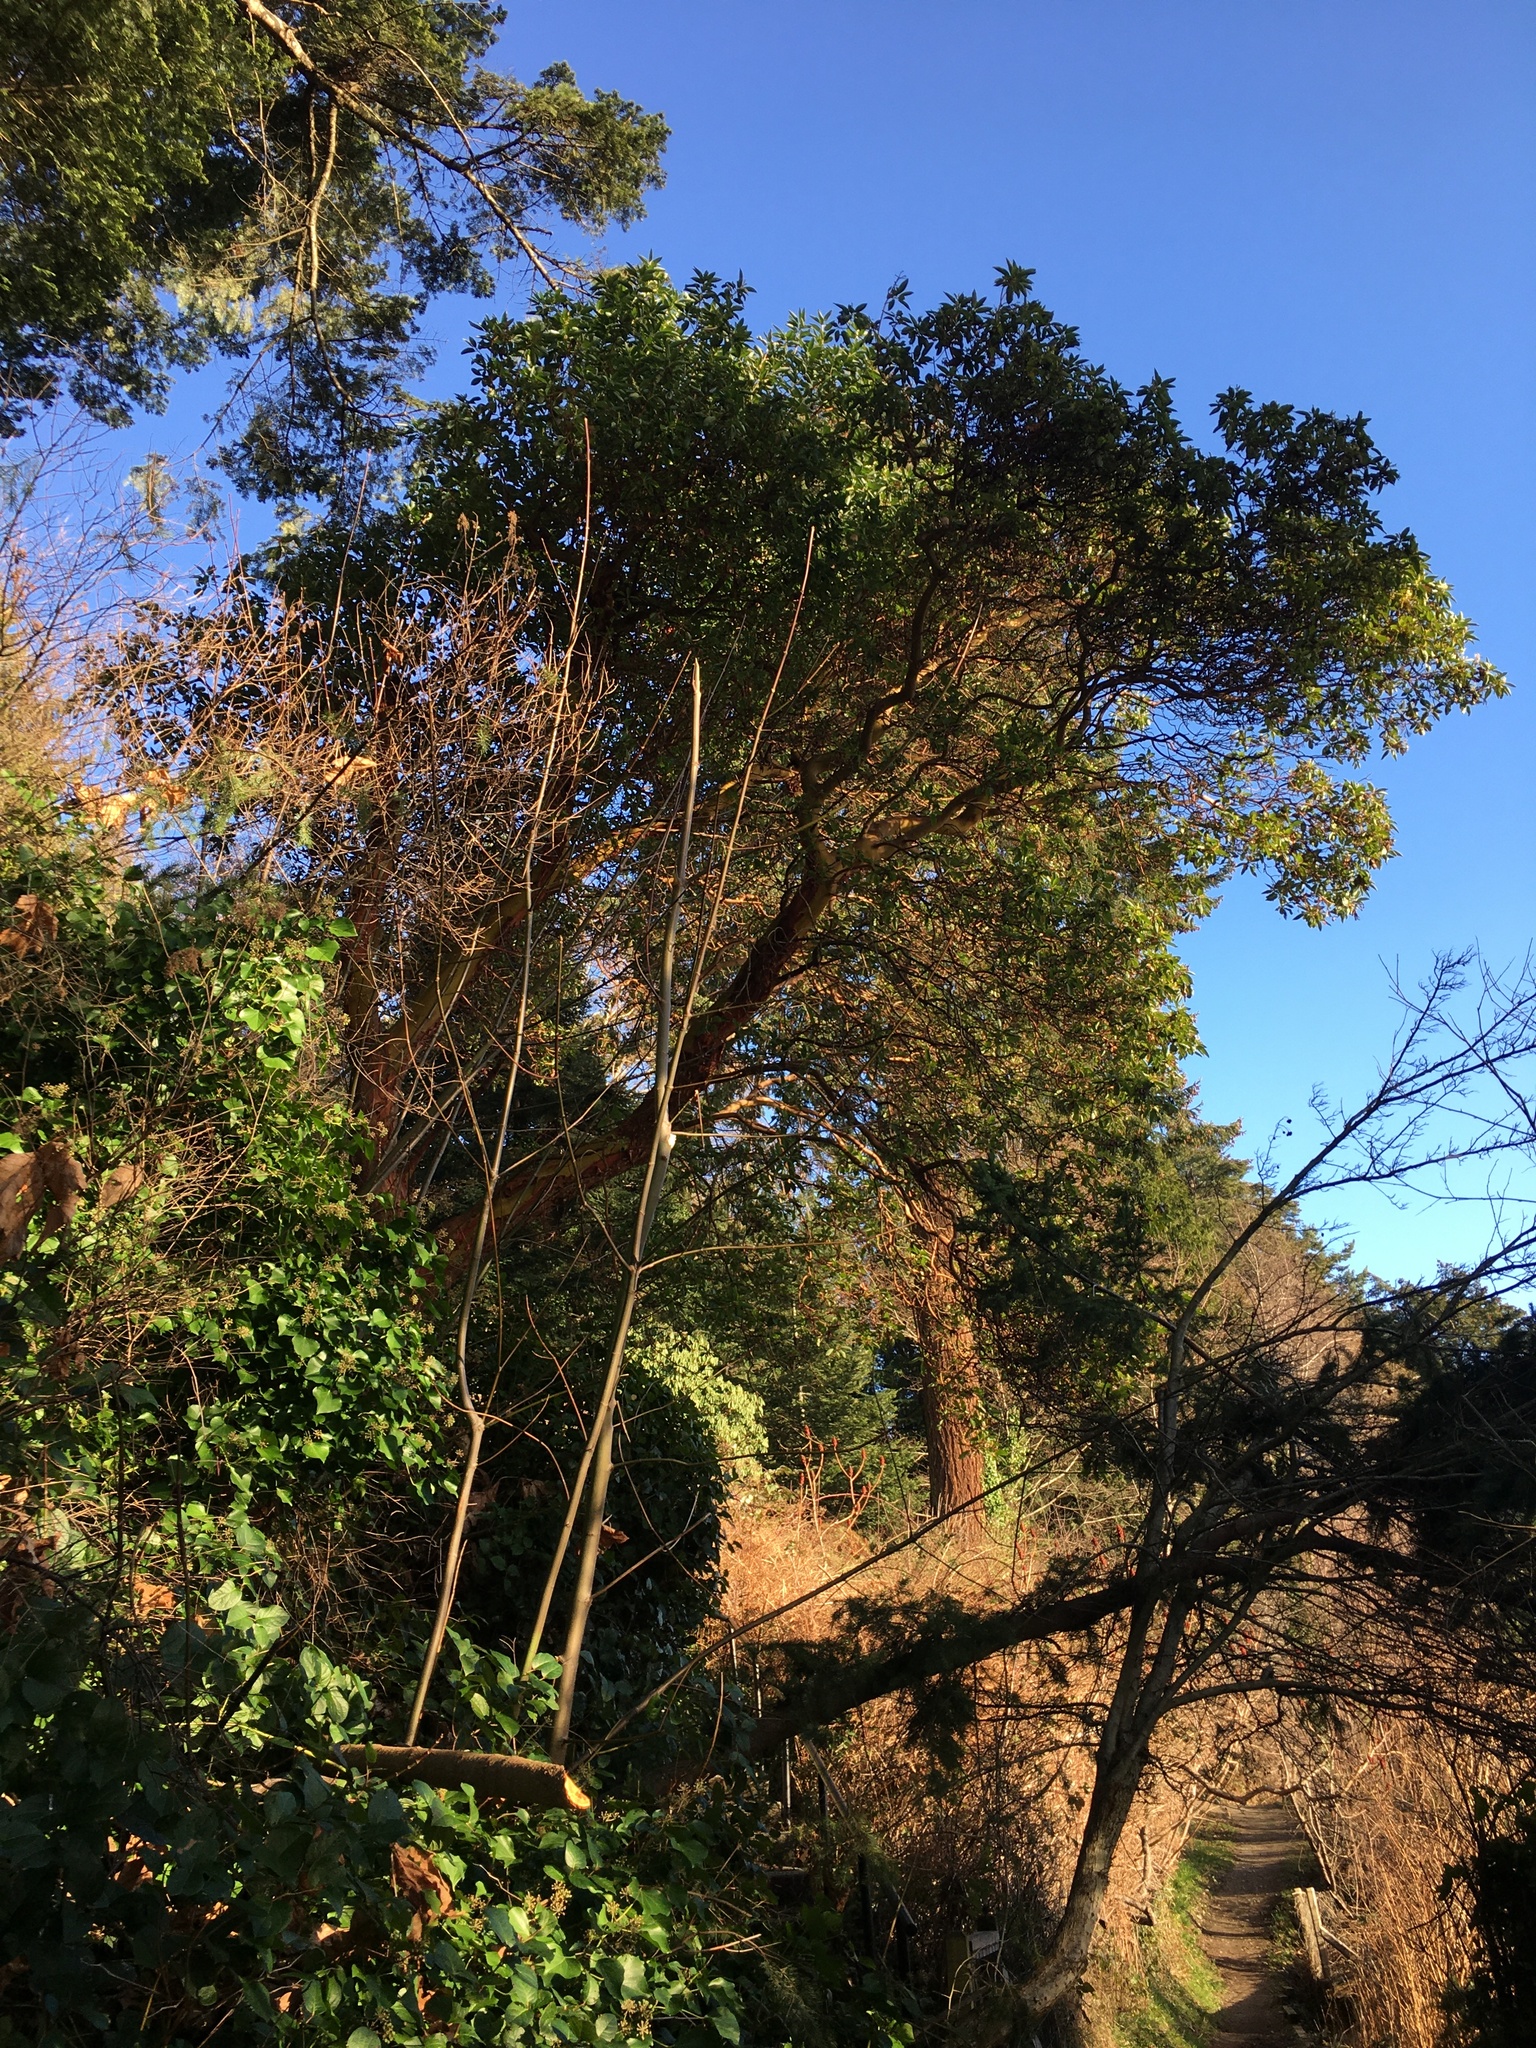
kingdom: Plantae
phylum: Tracheophyta
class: Magnoliopsida
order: Ericales
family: Ericaceae
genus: Arbutus
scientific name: Arbutus menziesii
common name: Pacific madrone
